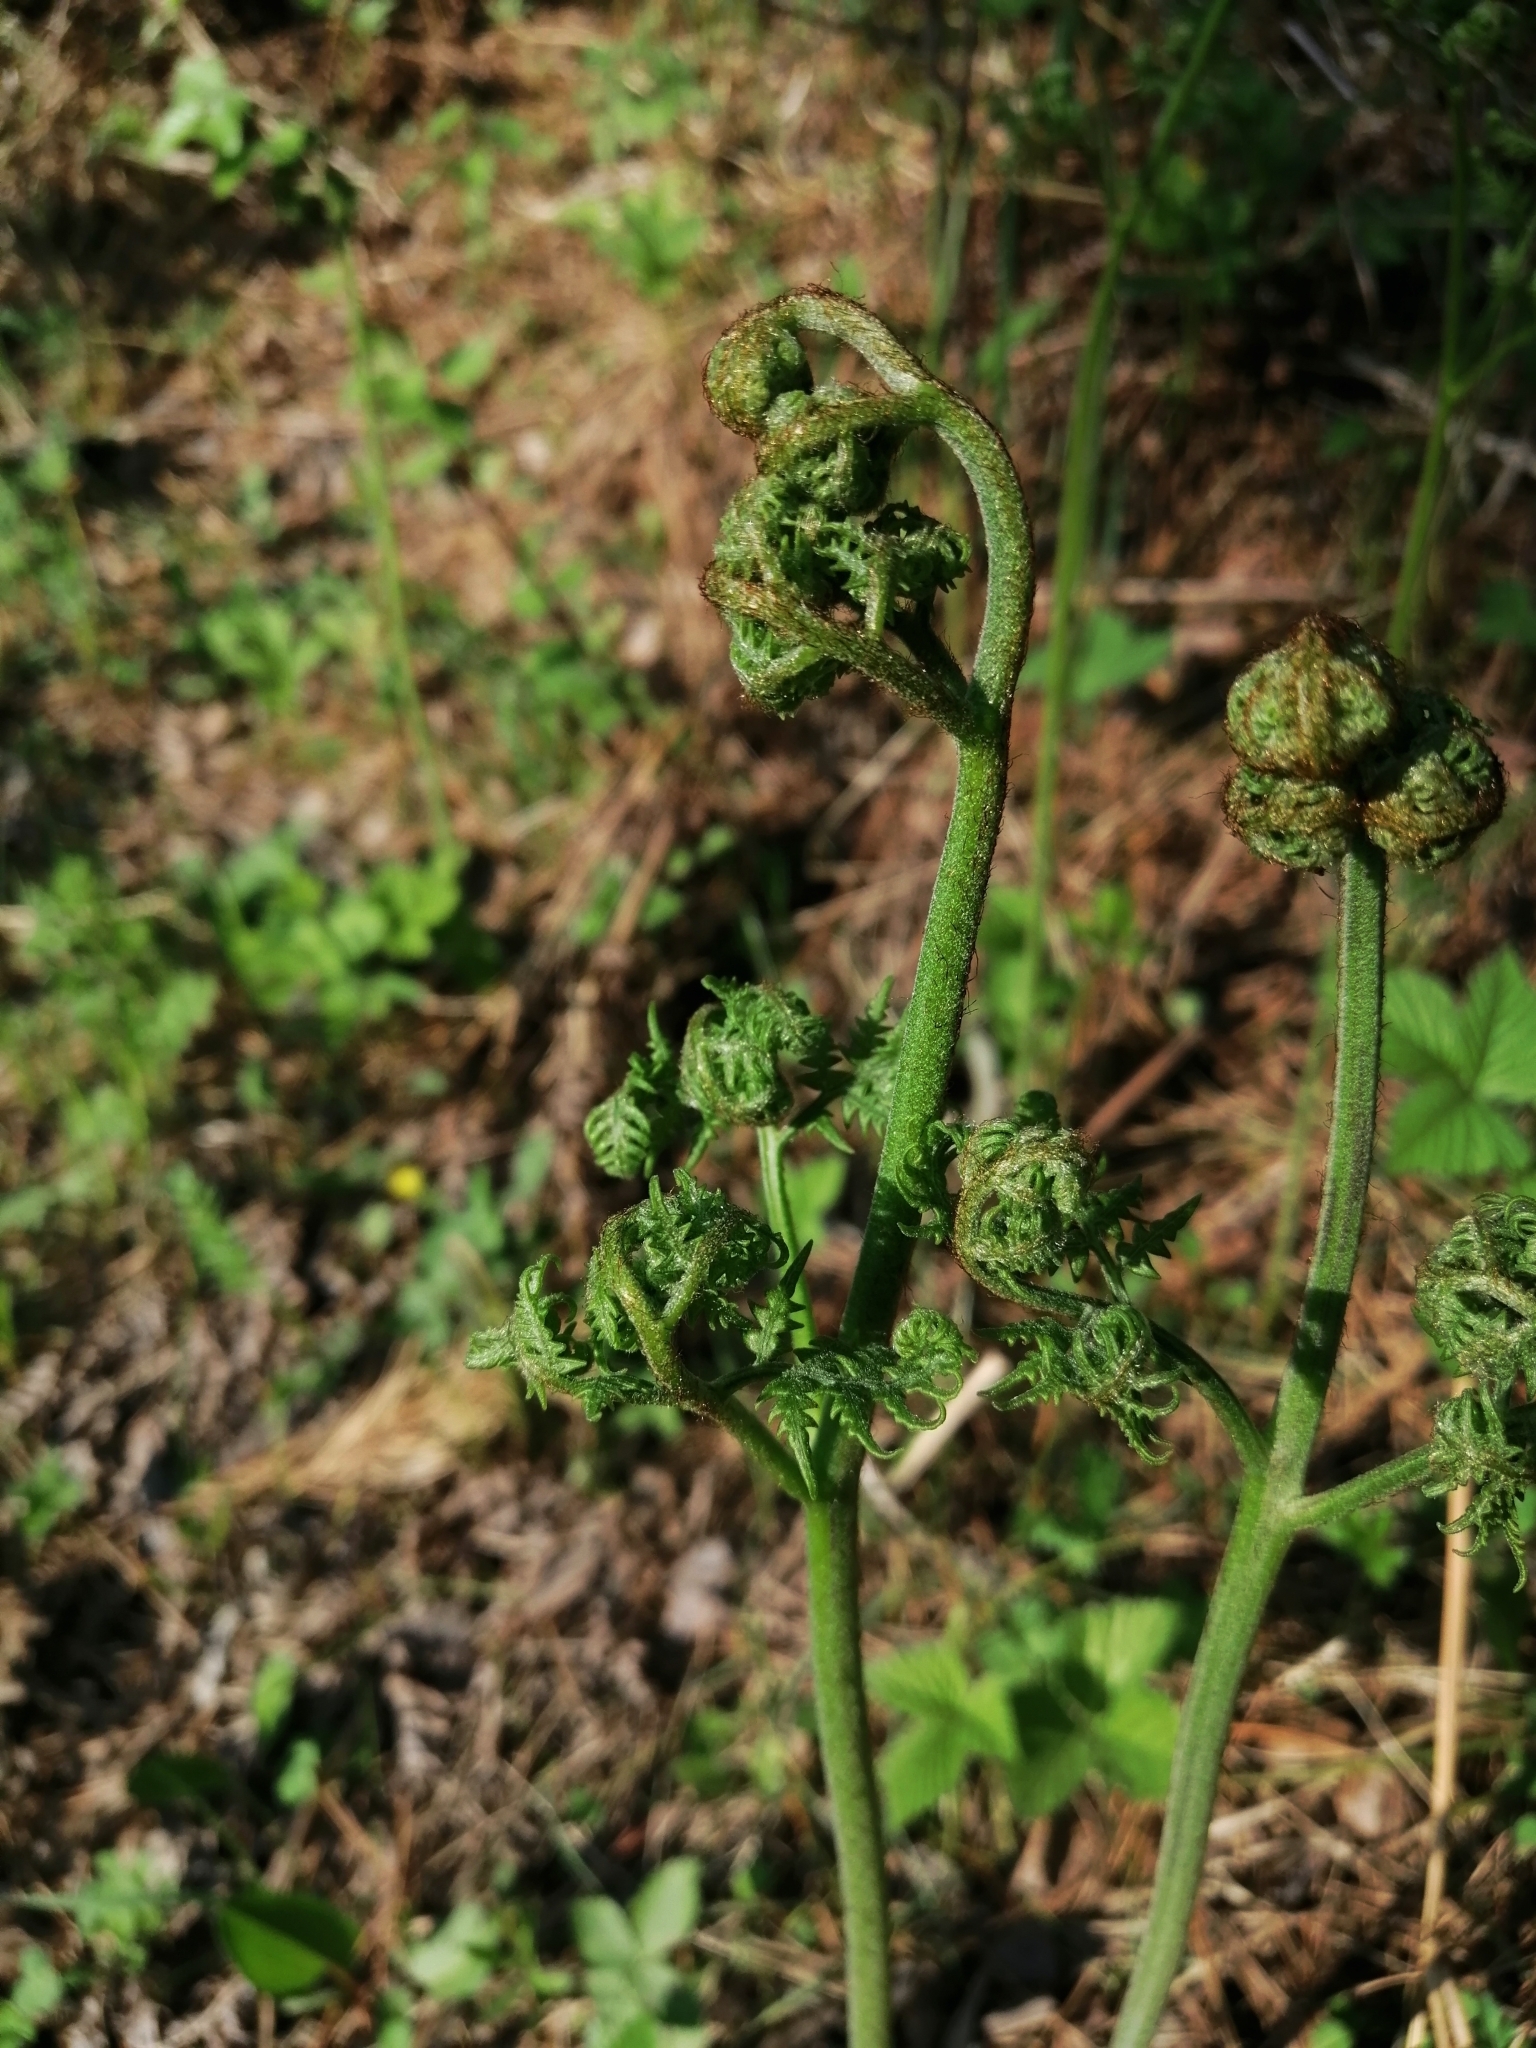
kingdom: Plantae
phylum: Tracheophyta
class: Polypodiopsida
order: Polypodiales
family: Dennstaedtiaceae
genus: Pteridium
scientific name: Pteridium aquilinum
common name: Bracken
